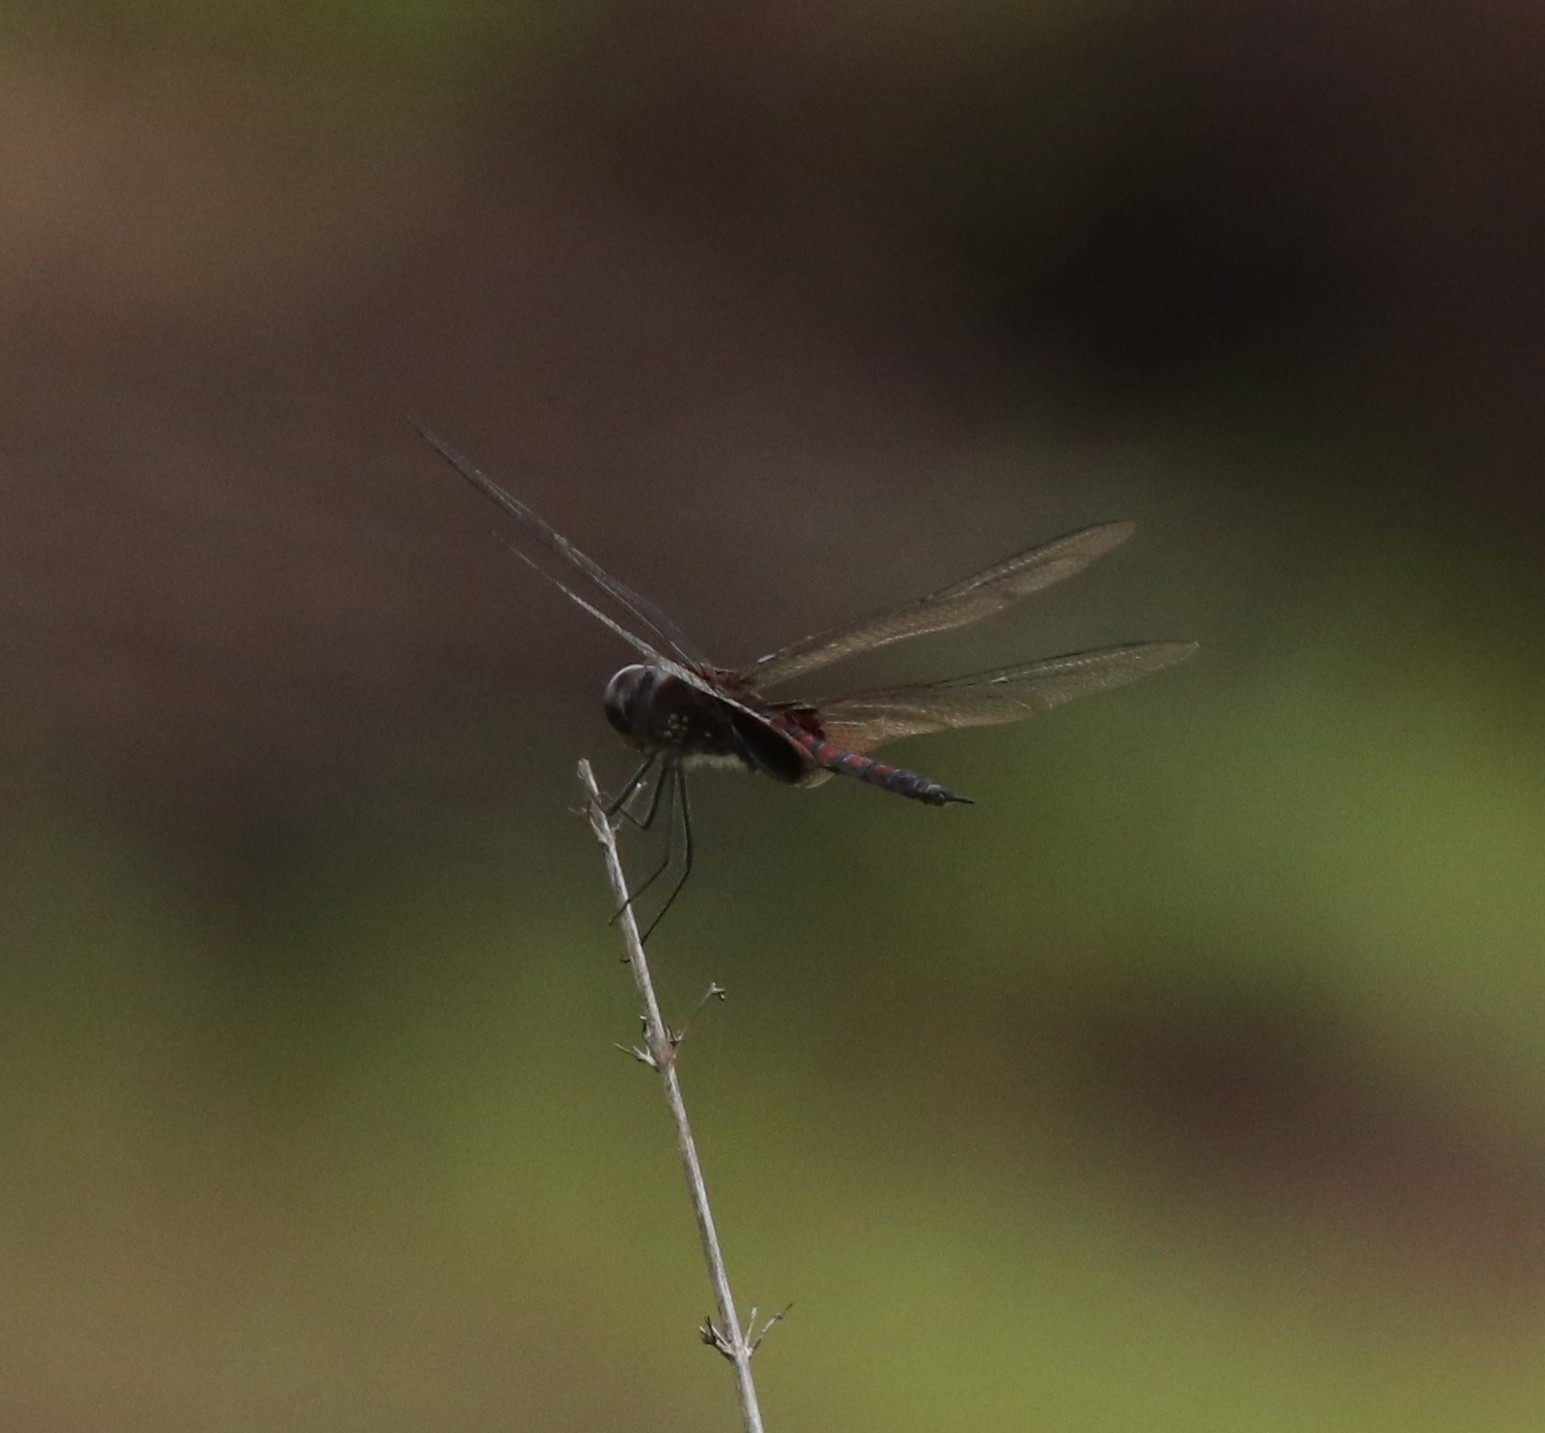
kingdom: Animalia
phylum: Arthropoda
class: Insecta
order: Odonata
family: Libellulidae
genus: Tramea
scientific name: Tramea limbata
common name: Ferruginous glider
